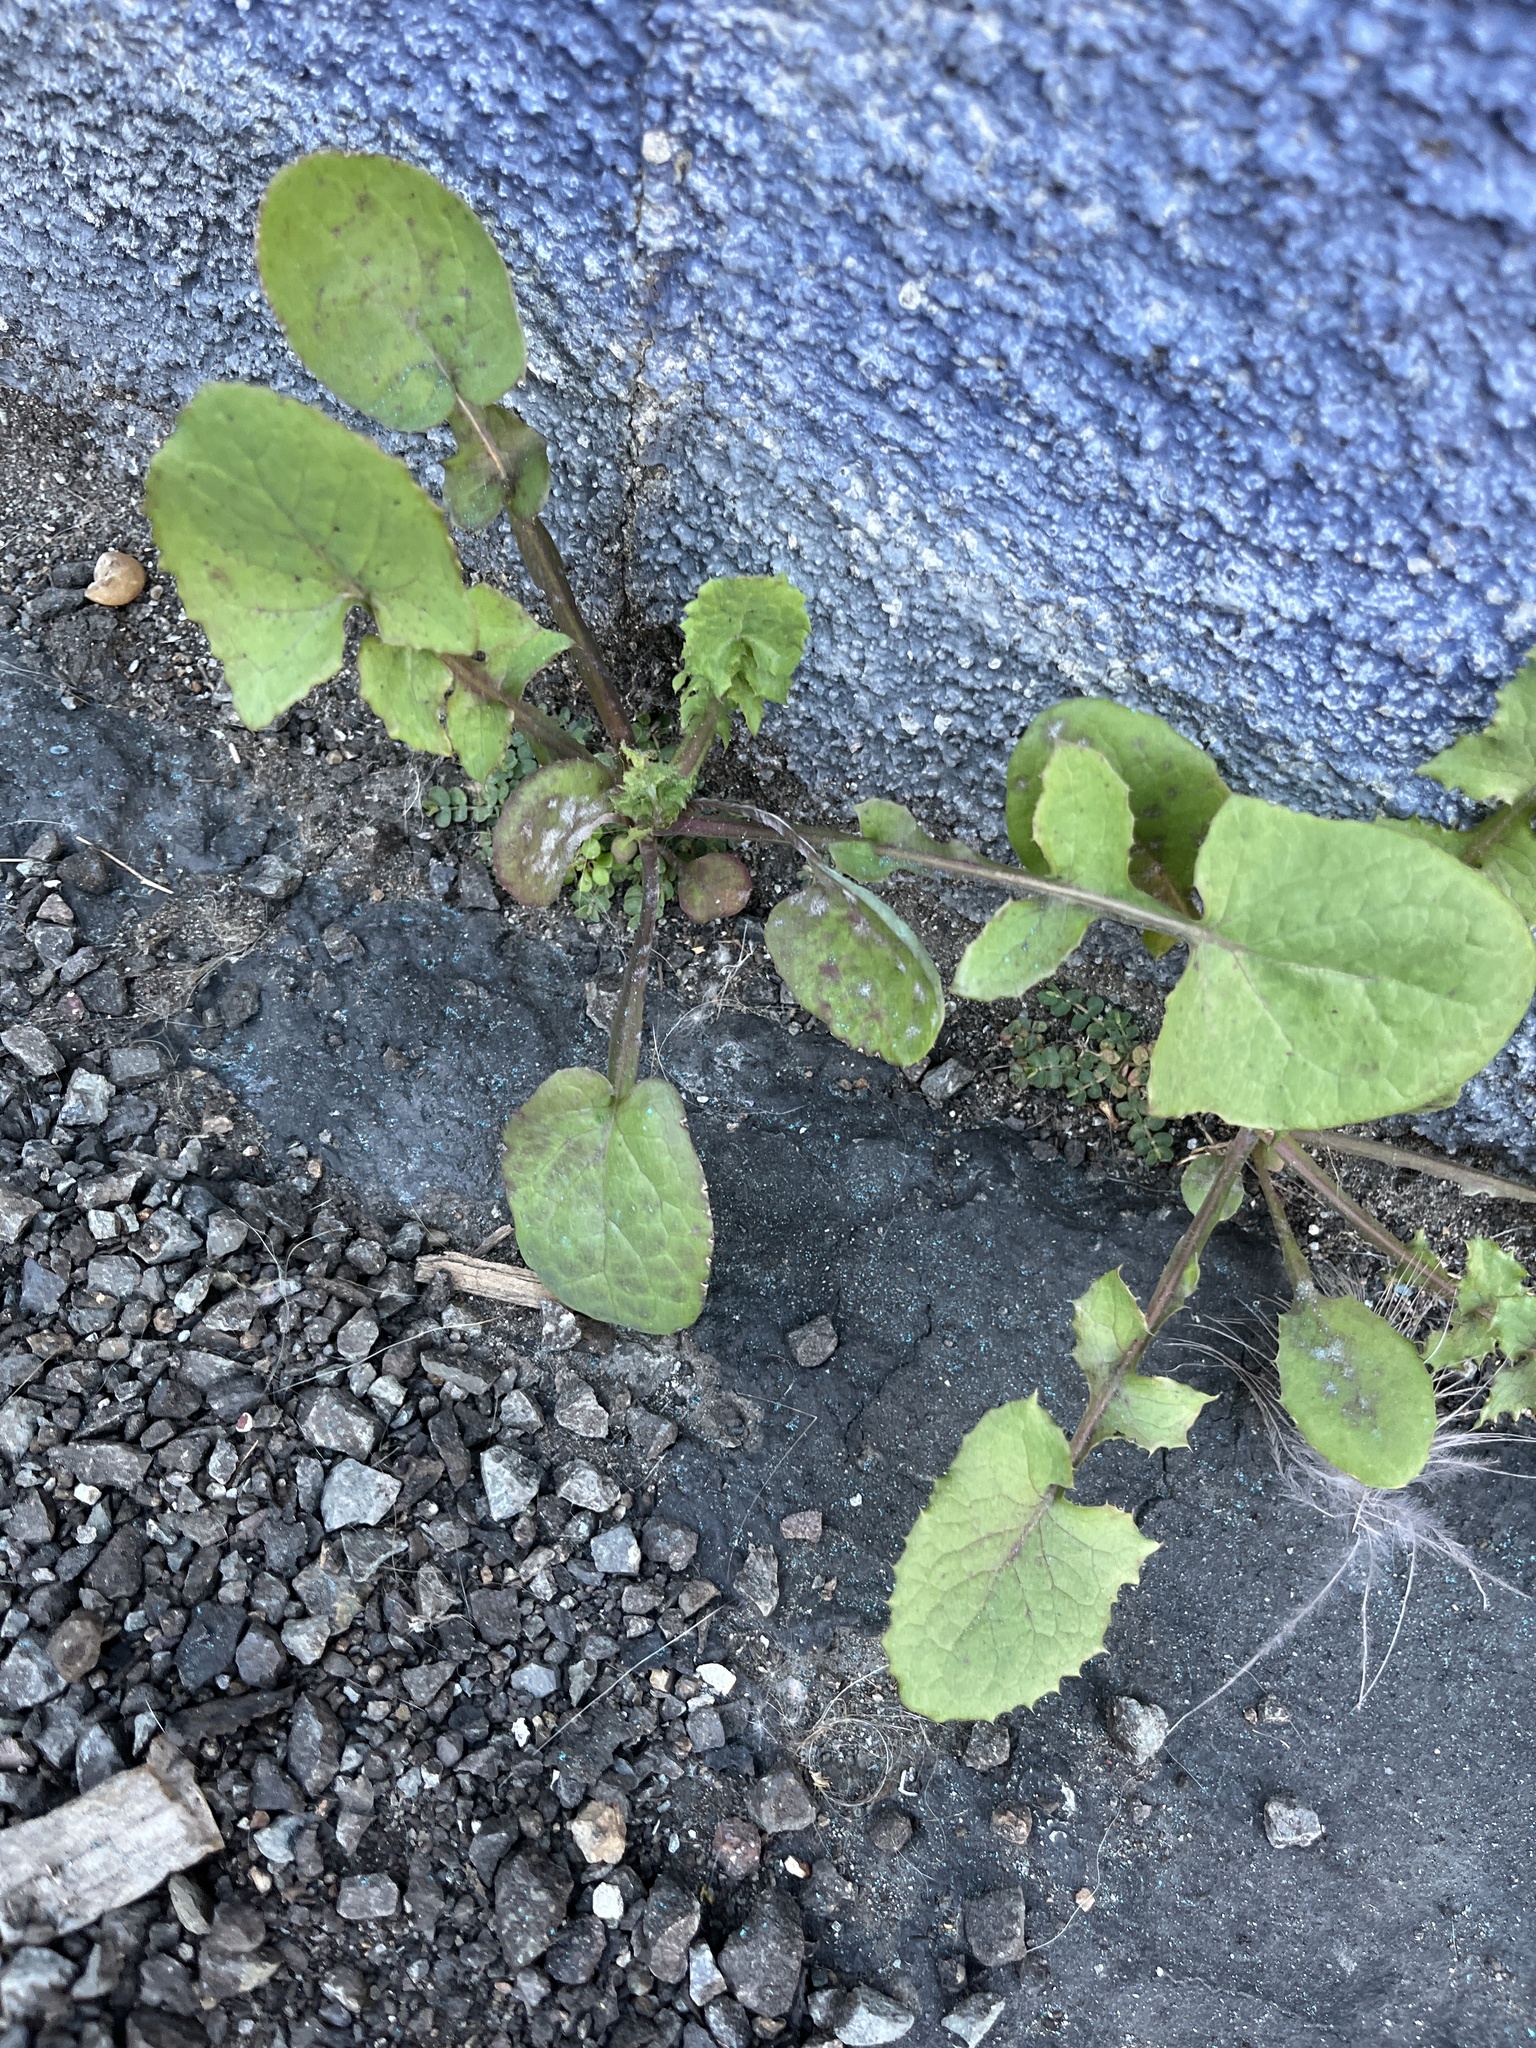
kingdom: Plantae
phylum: Tracheophyta
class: Magnoliopsida
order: Asterales
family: Asteraceae
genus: Sonchus
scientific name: Sonchus oleraceus
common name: Common sowthistle
